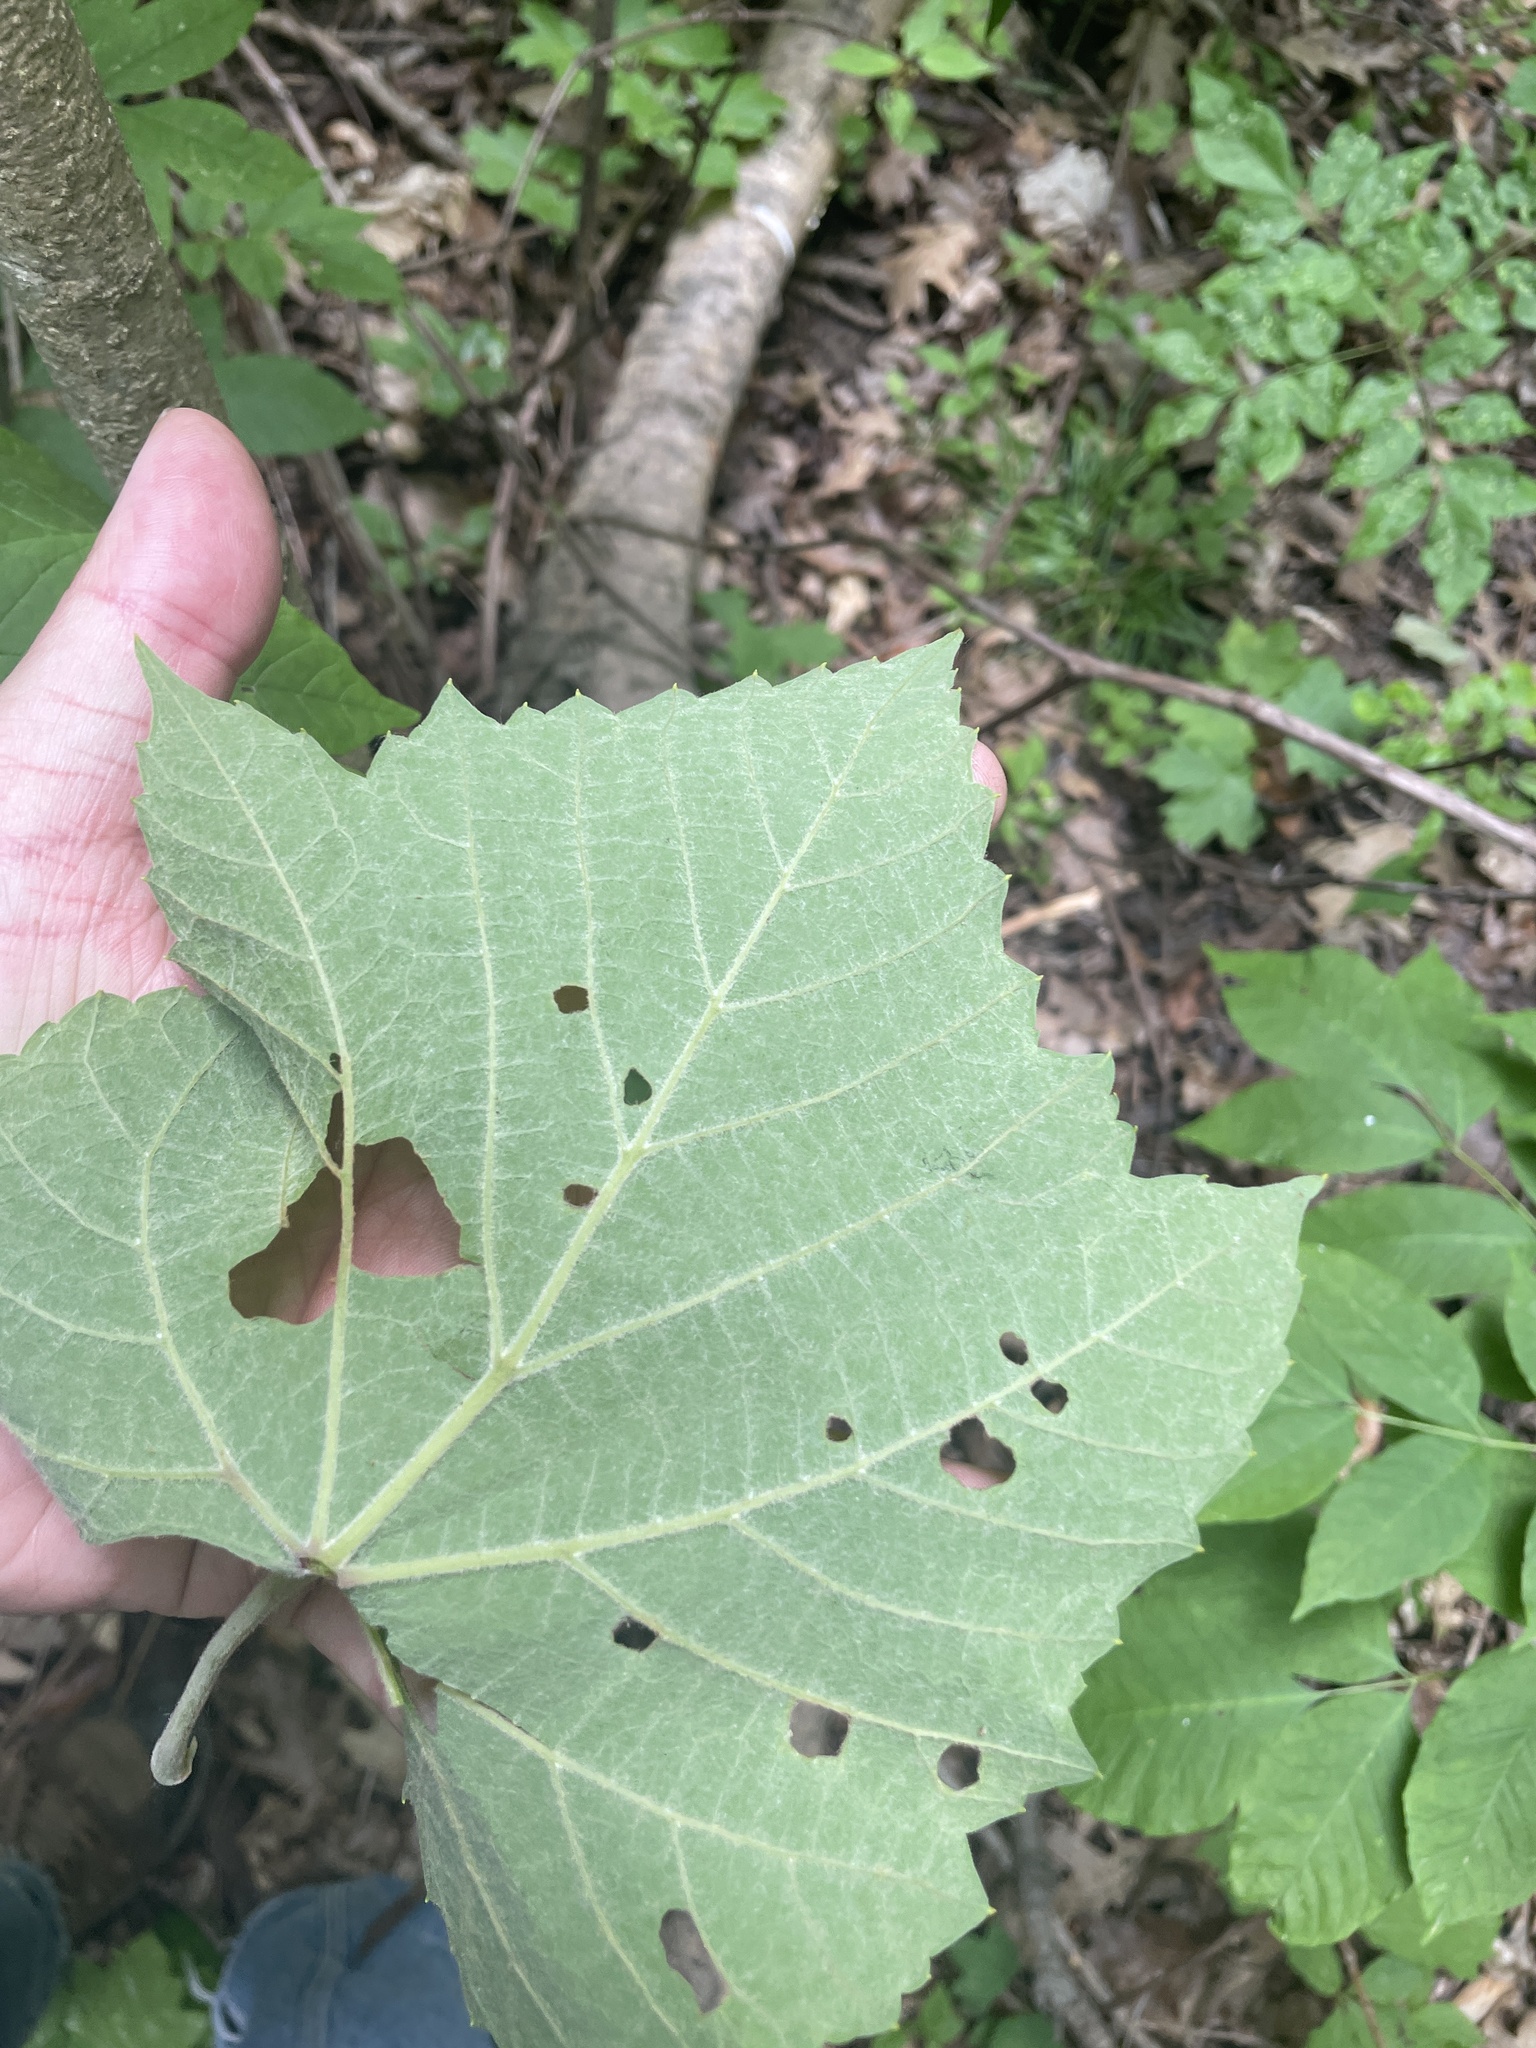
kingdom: Plantae
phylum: Tracheophyta
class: Magnoliopsida
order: Vitales
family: Vitaceae
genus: Vitis
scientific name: Vitis aestivalis
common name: Pigeon grape
